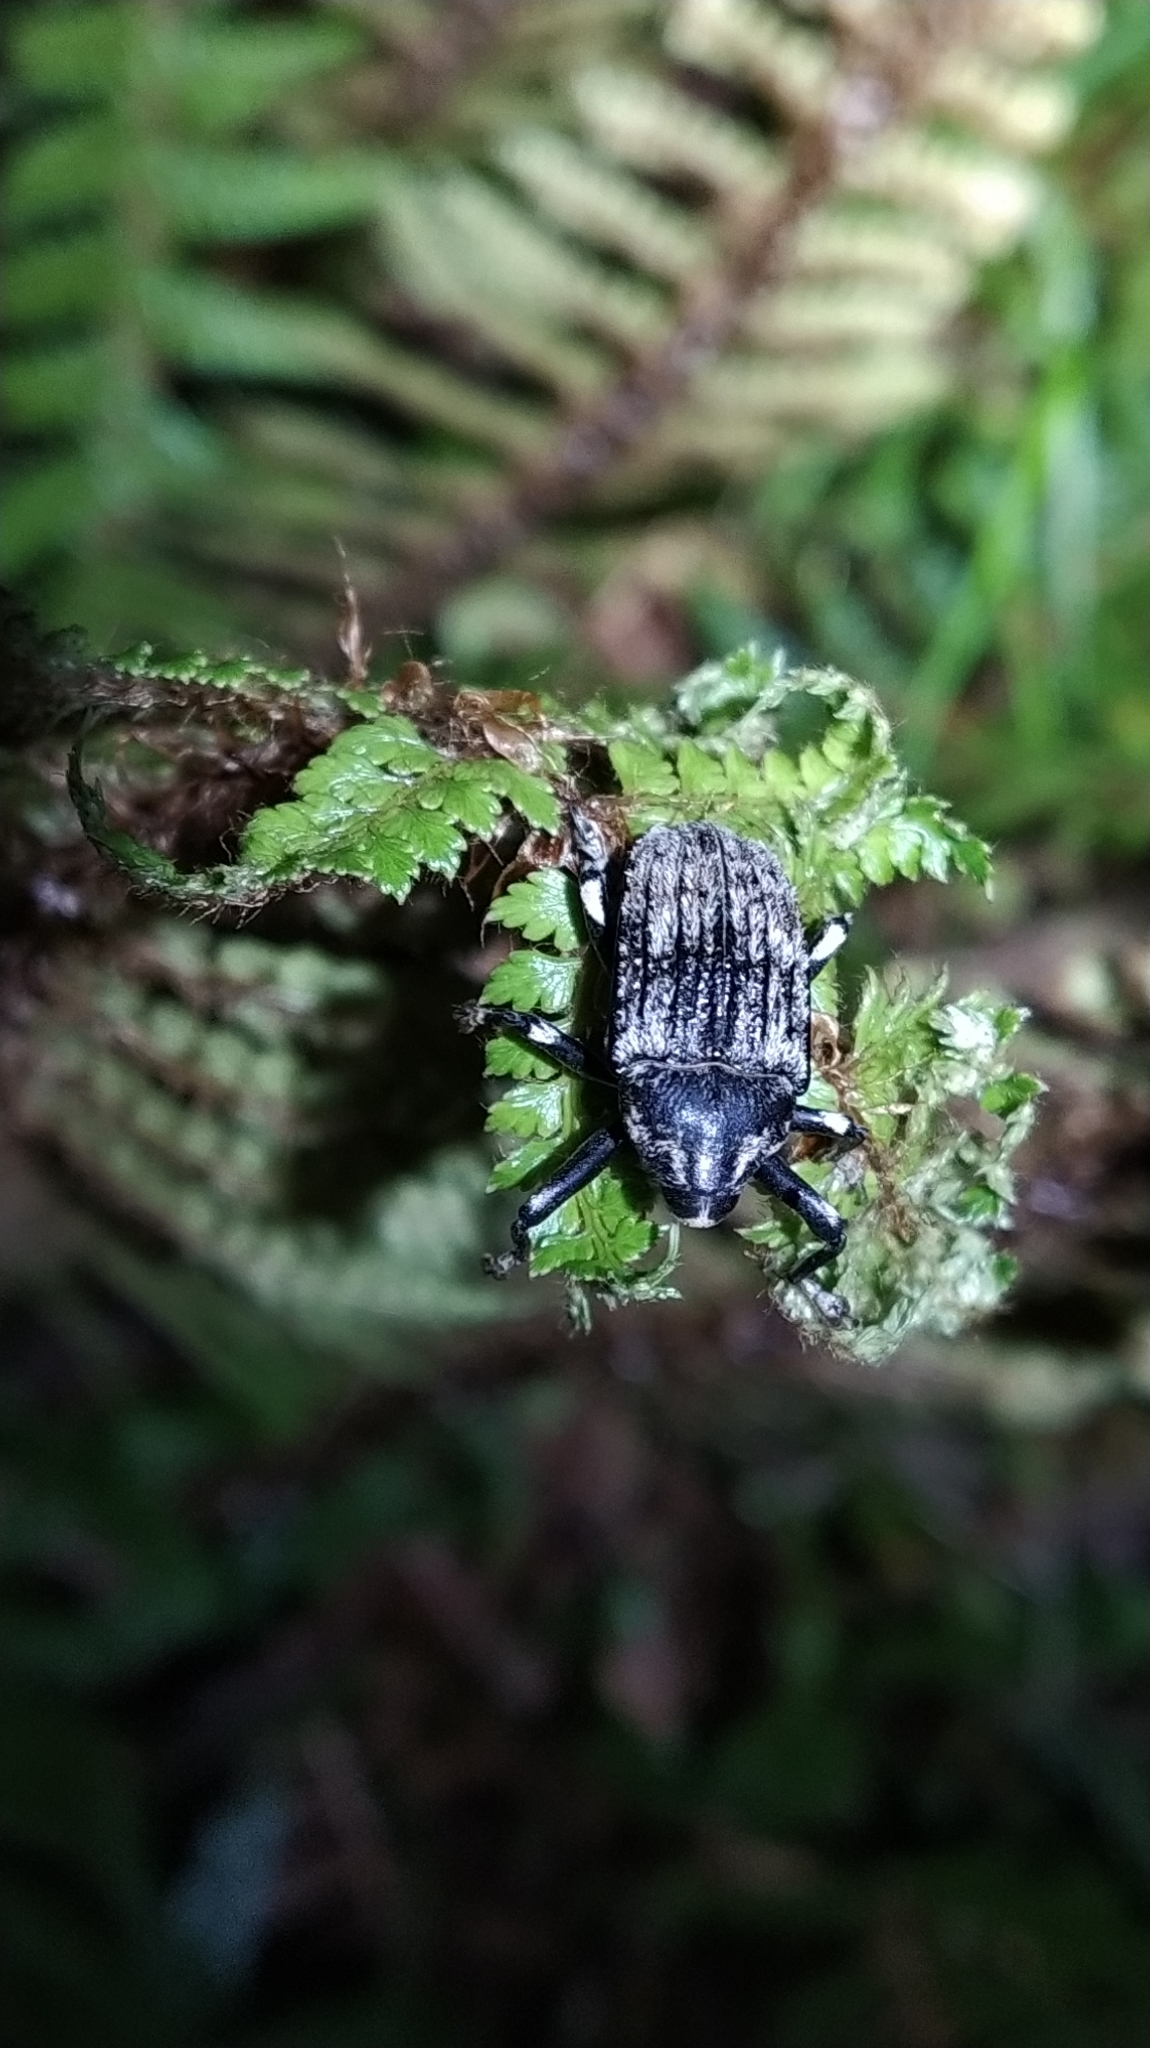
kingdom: Animalia
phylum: Arthropoda
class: Insecta
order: Coleoptera
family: Curculionidae
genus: Rhynchodes
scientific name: Rhynchodes ursus
